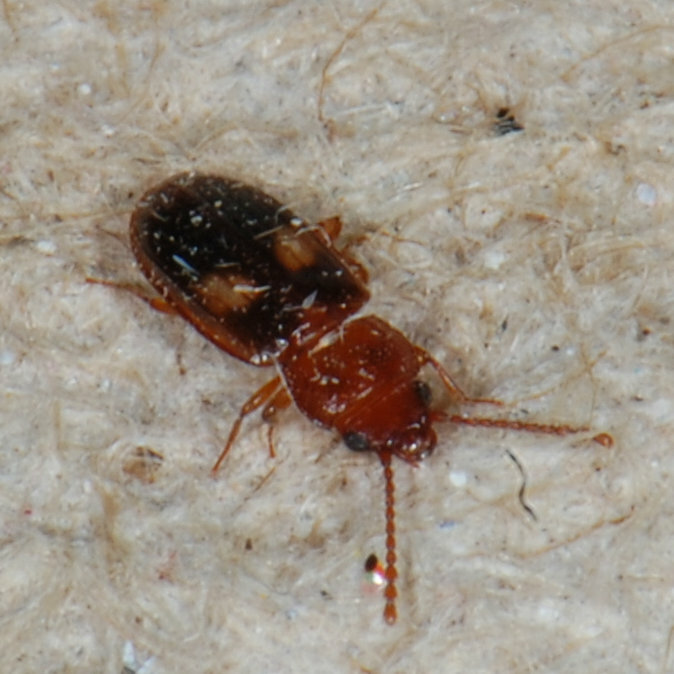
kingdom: Animalia
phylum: Arthropoda
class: Insecta
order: Coleoptera
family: Laemophloeidae
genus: Laemophloeus
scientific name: Laemophloeus fasciatus
